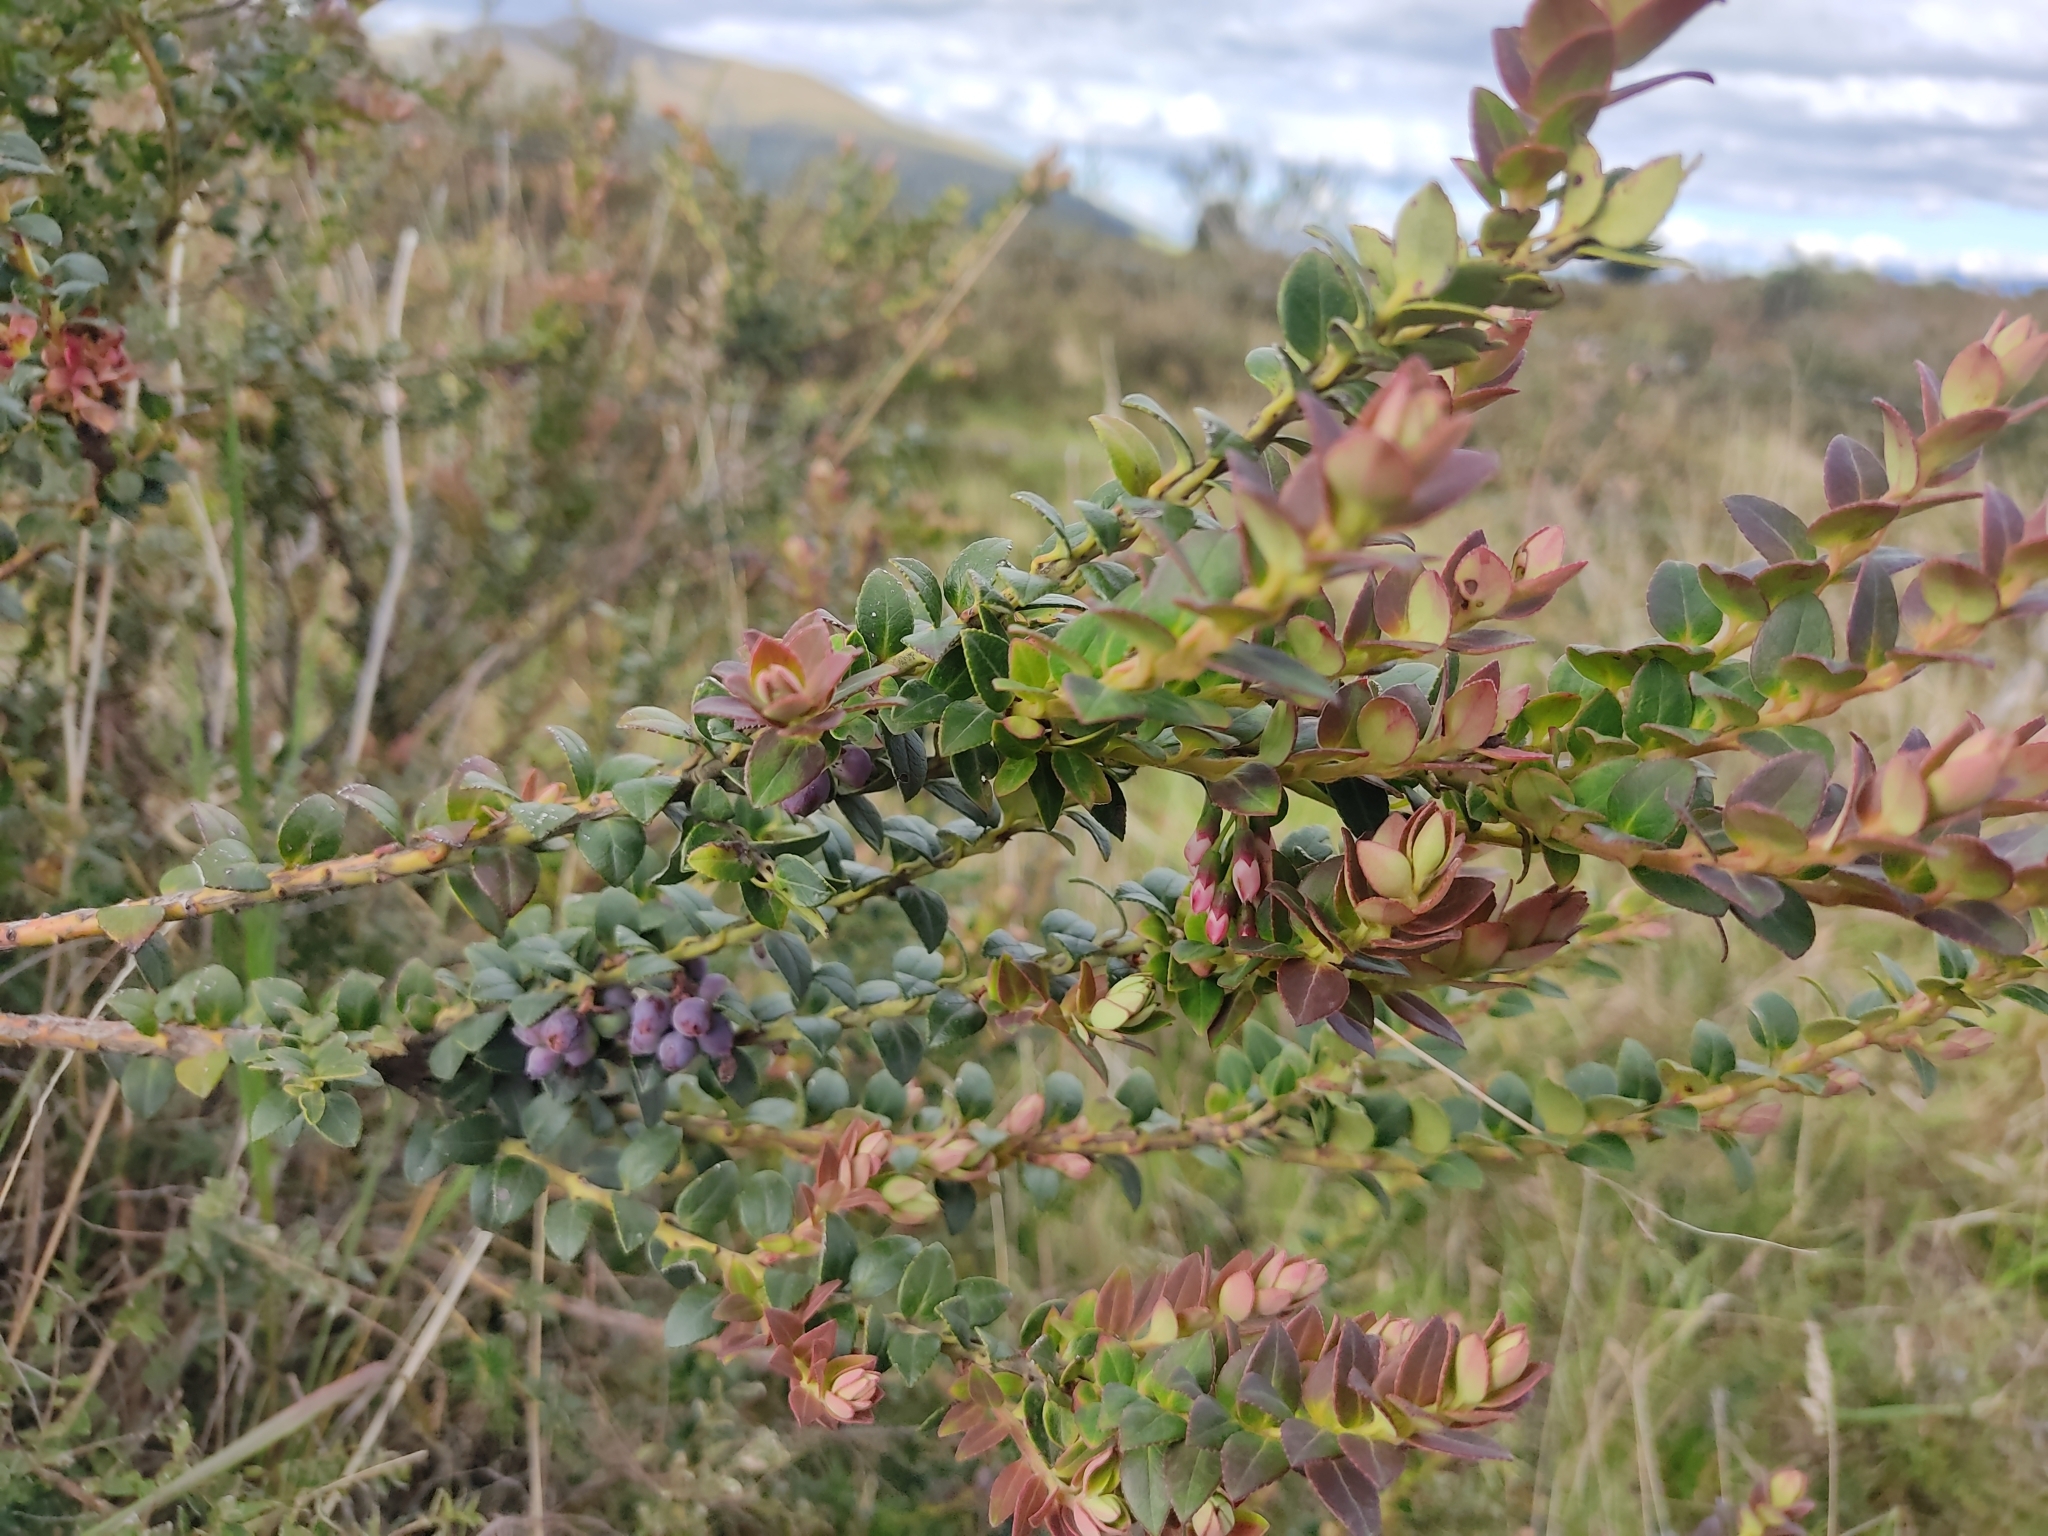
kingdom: Plantae
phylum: Tracheophyta
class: Magnoliopsida
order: Ericales
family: Ericaceae
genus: Vaccinium
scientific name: Vaccinium floribundum
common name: Colombian blueberry
